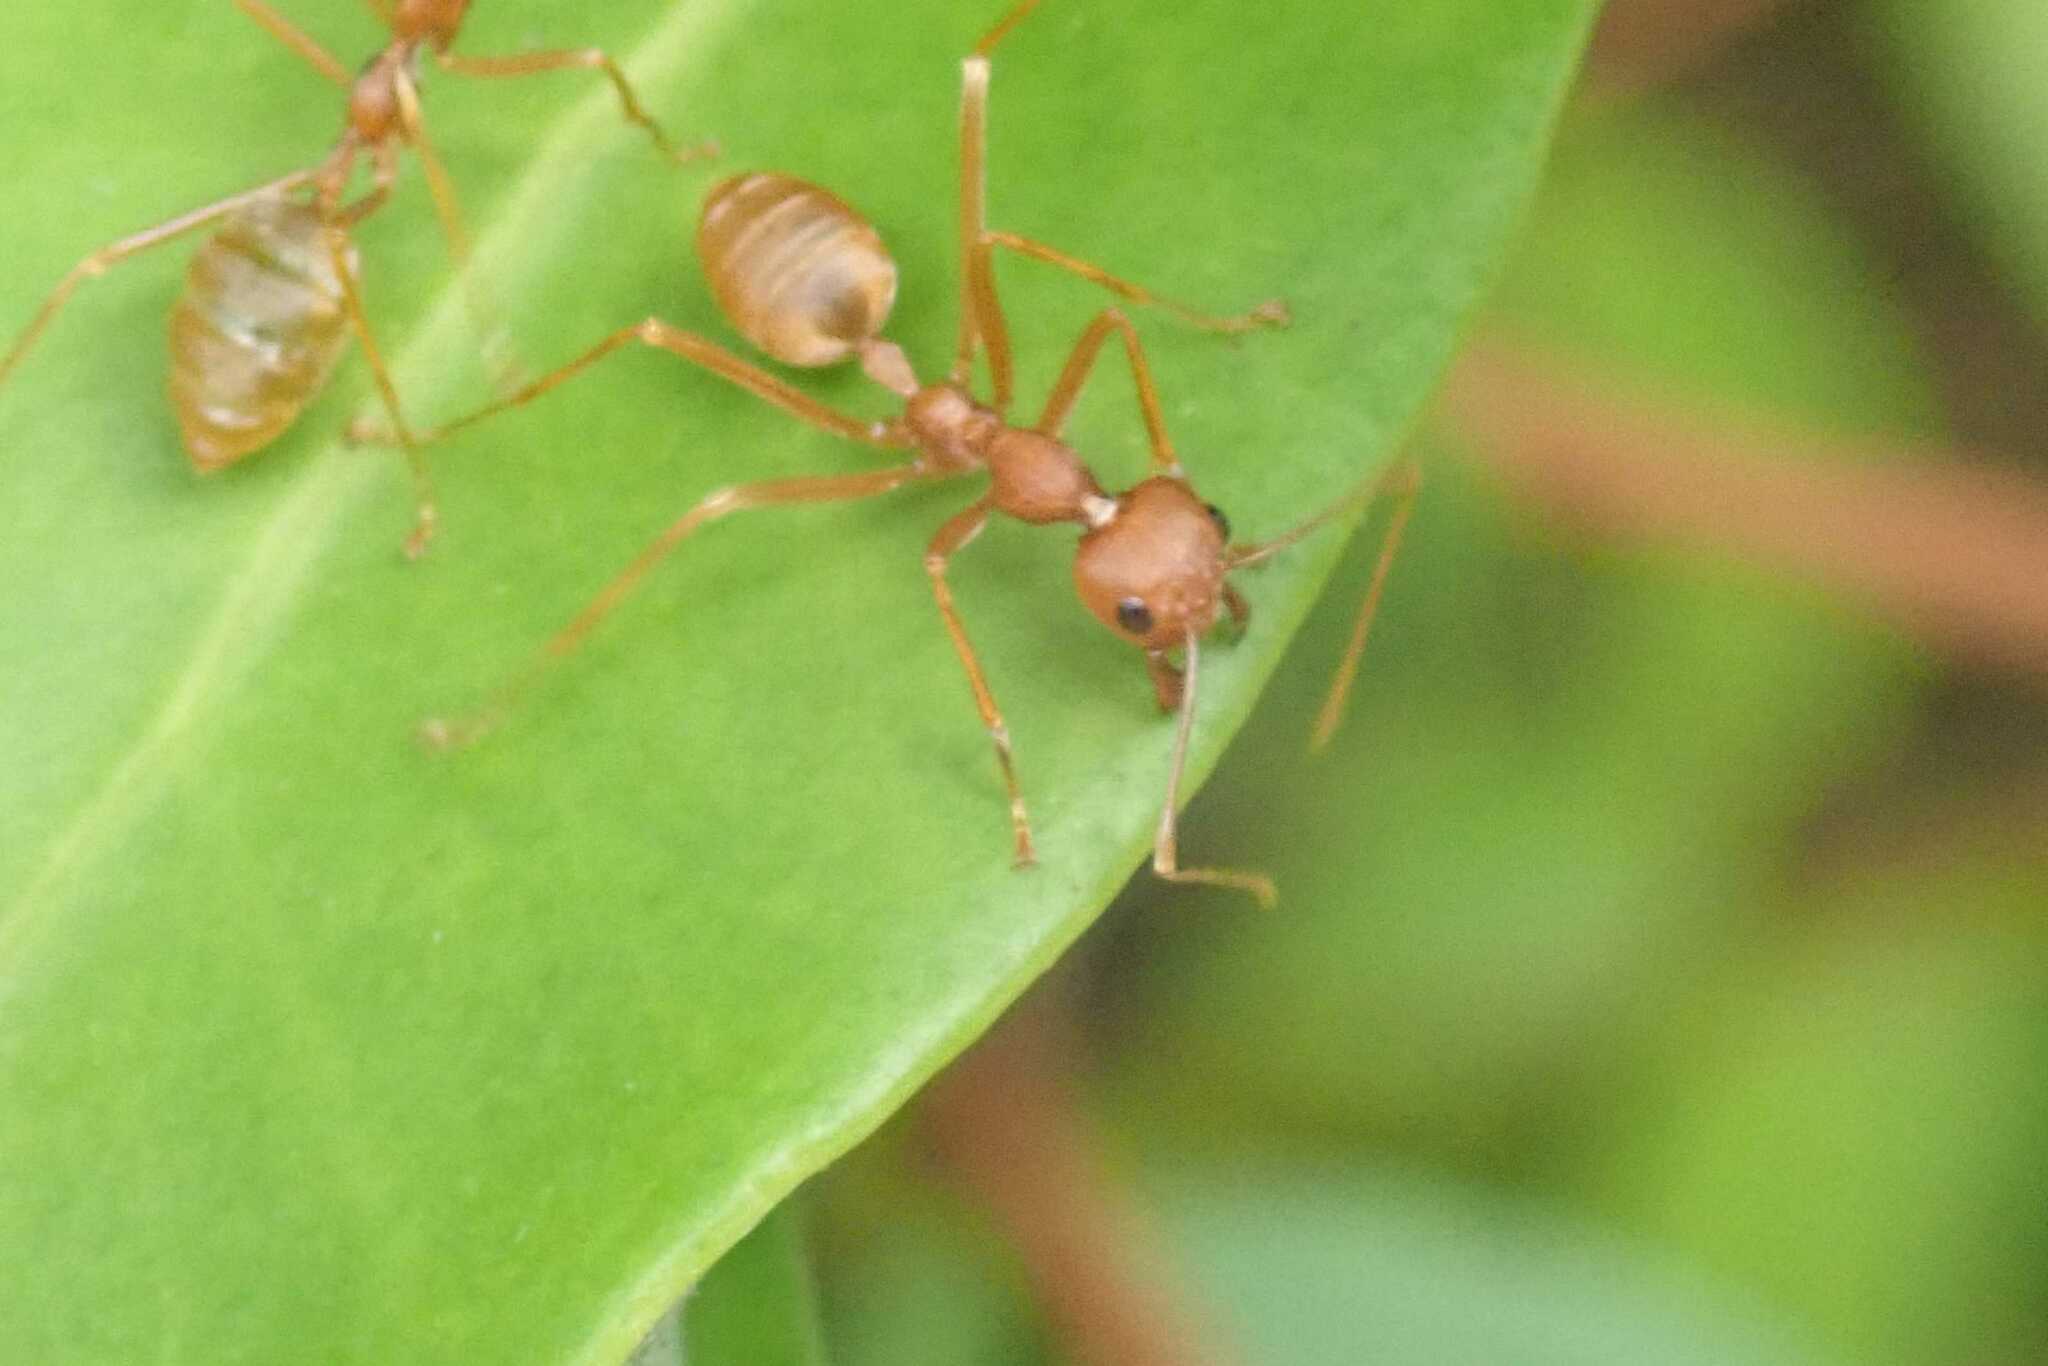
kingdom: Animalia
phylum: Arthropoda
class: Insecta
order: Hymenoptera
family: Formicidae
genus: Oecophylla
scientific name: Oecophylla longinoda
